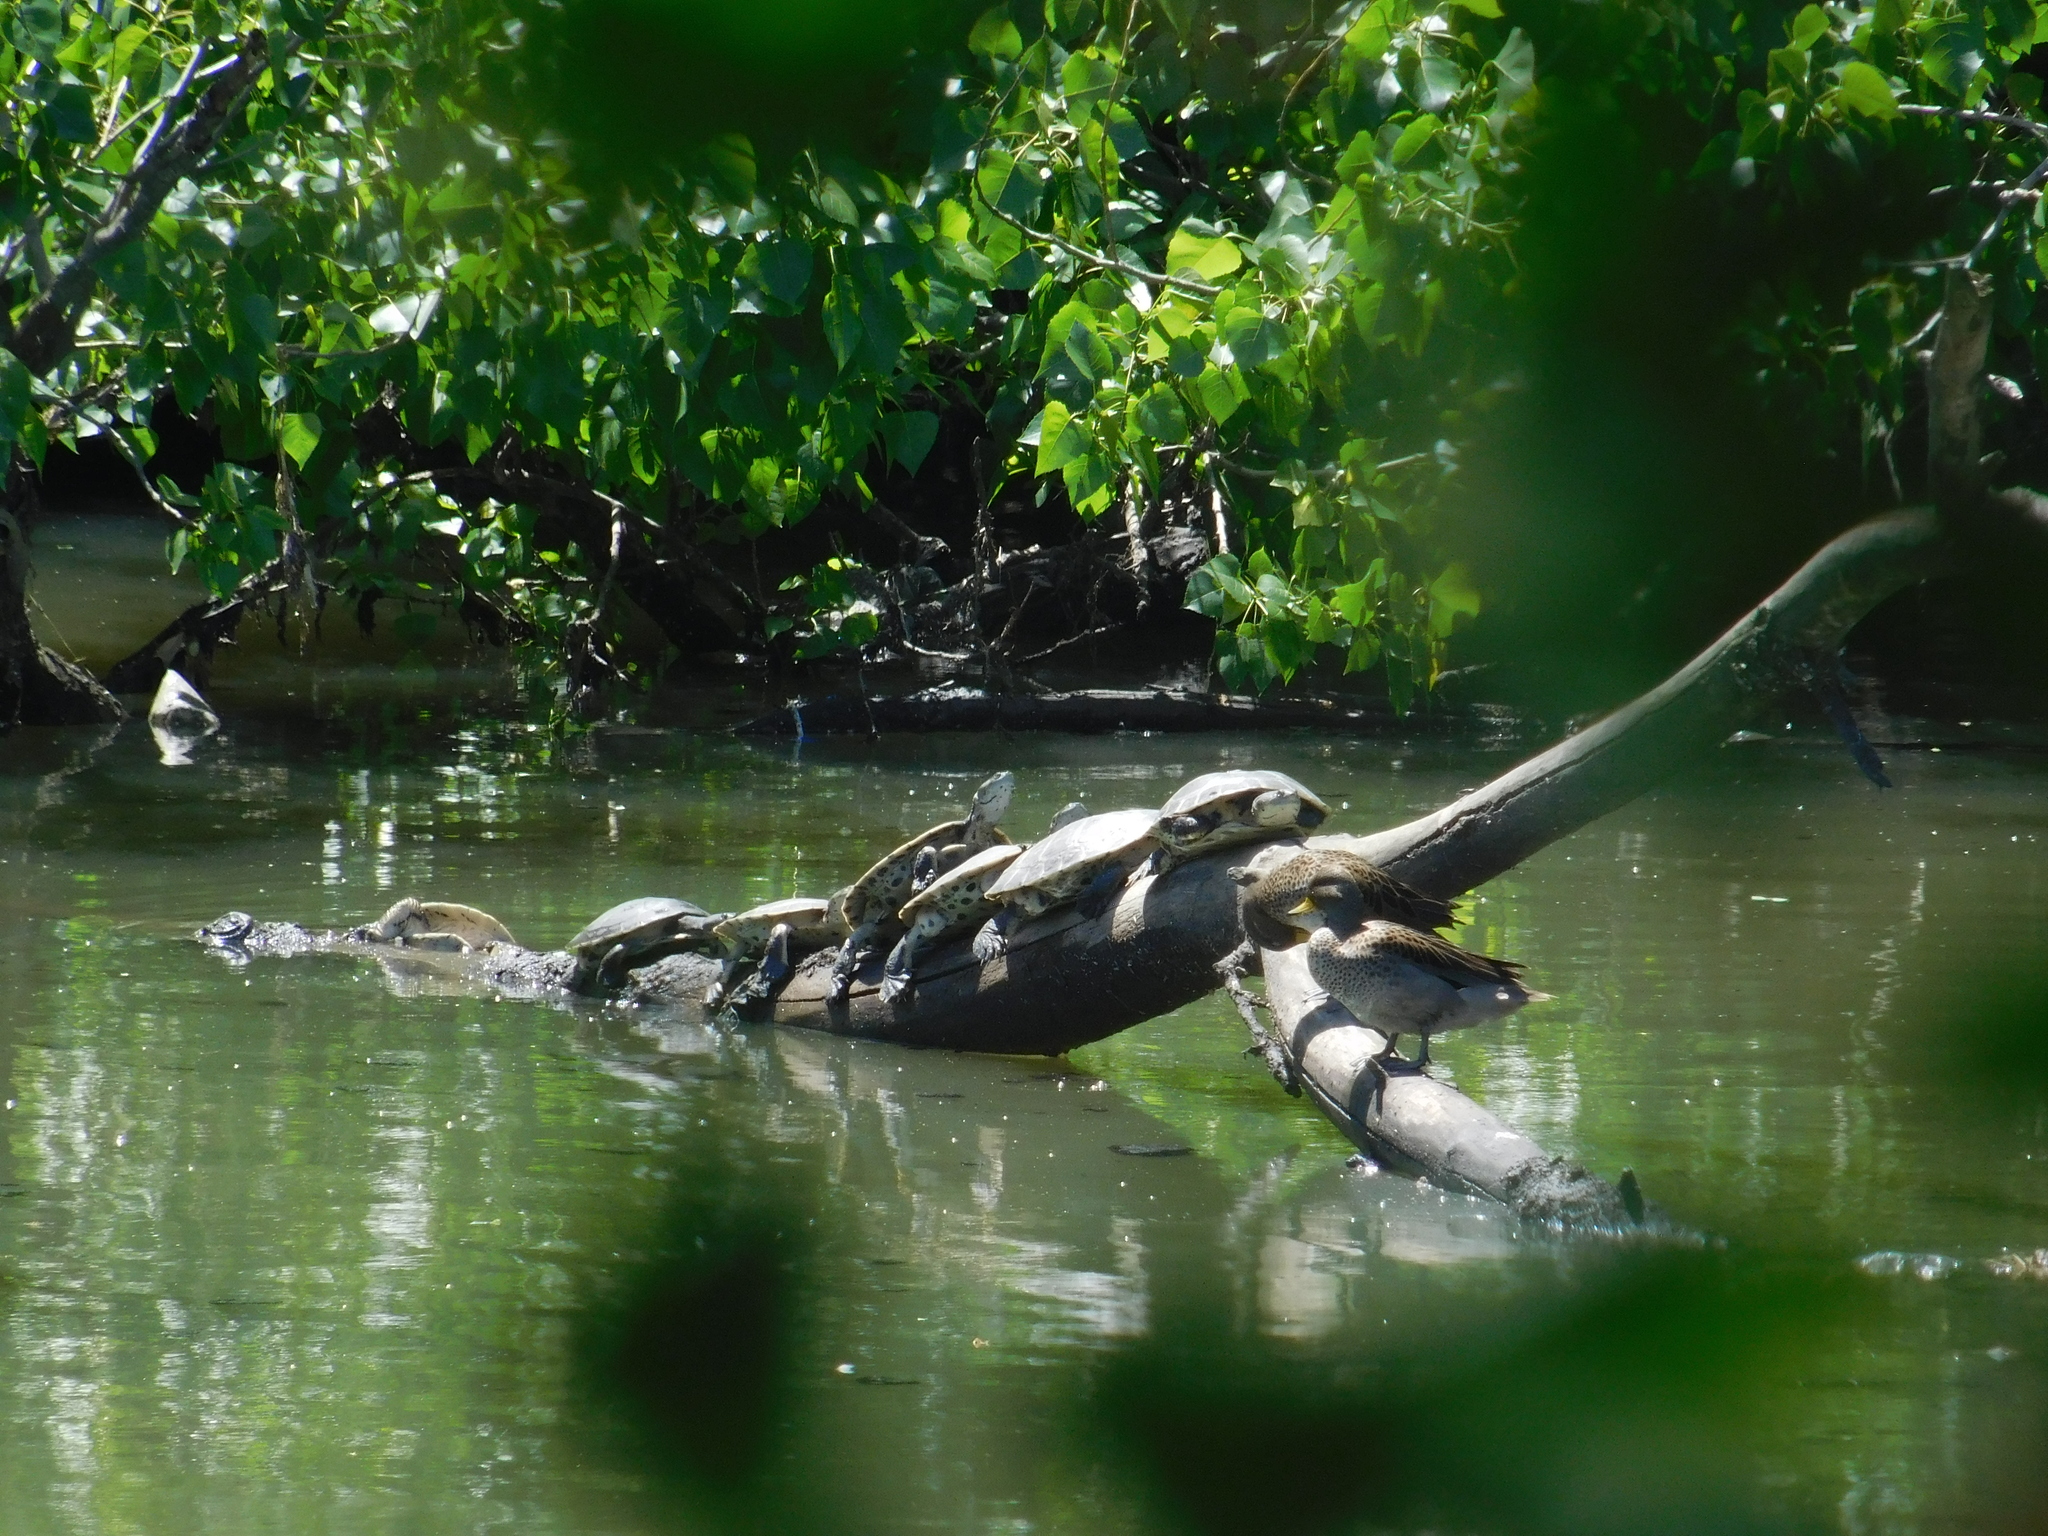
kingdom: Animalia
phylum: Chordata
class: Testudines
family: Chelidae
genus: Phrynops
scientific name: Phrynops hilarii
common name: Side-necked turtle of saint hillaire
